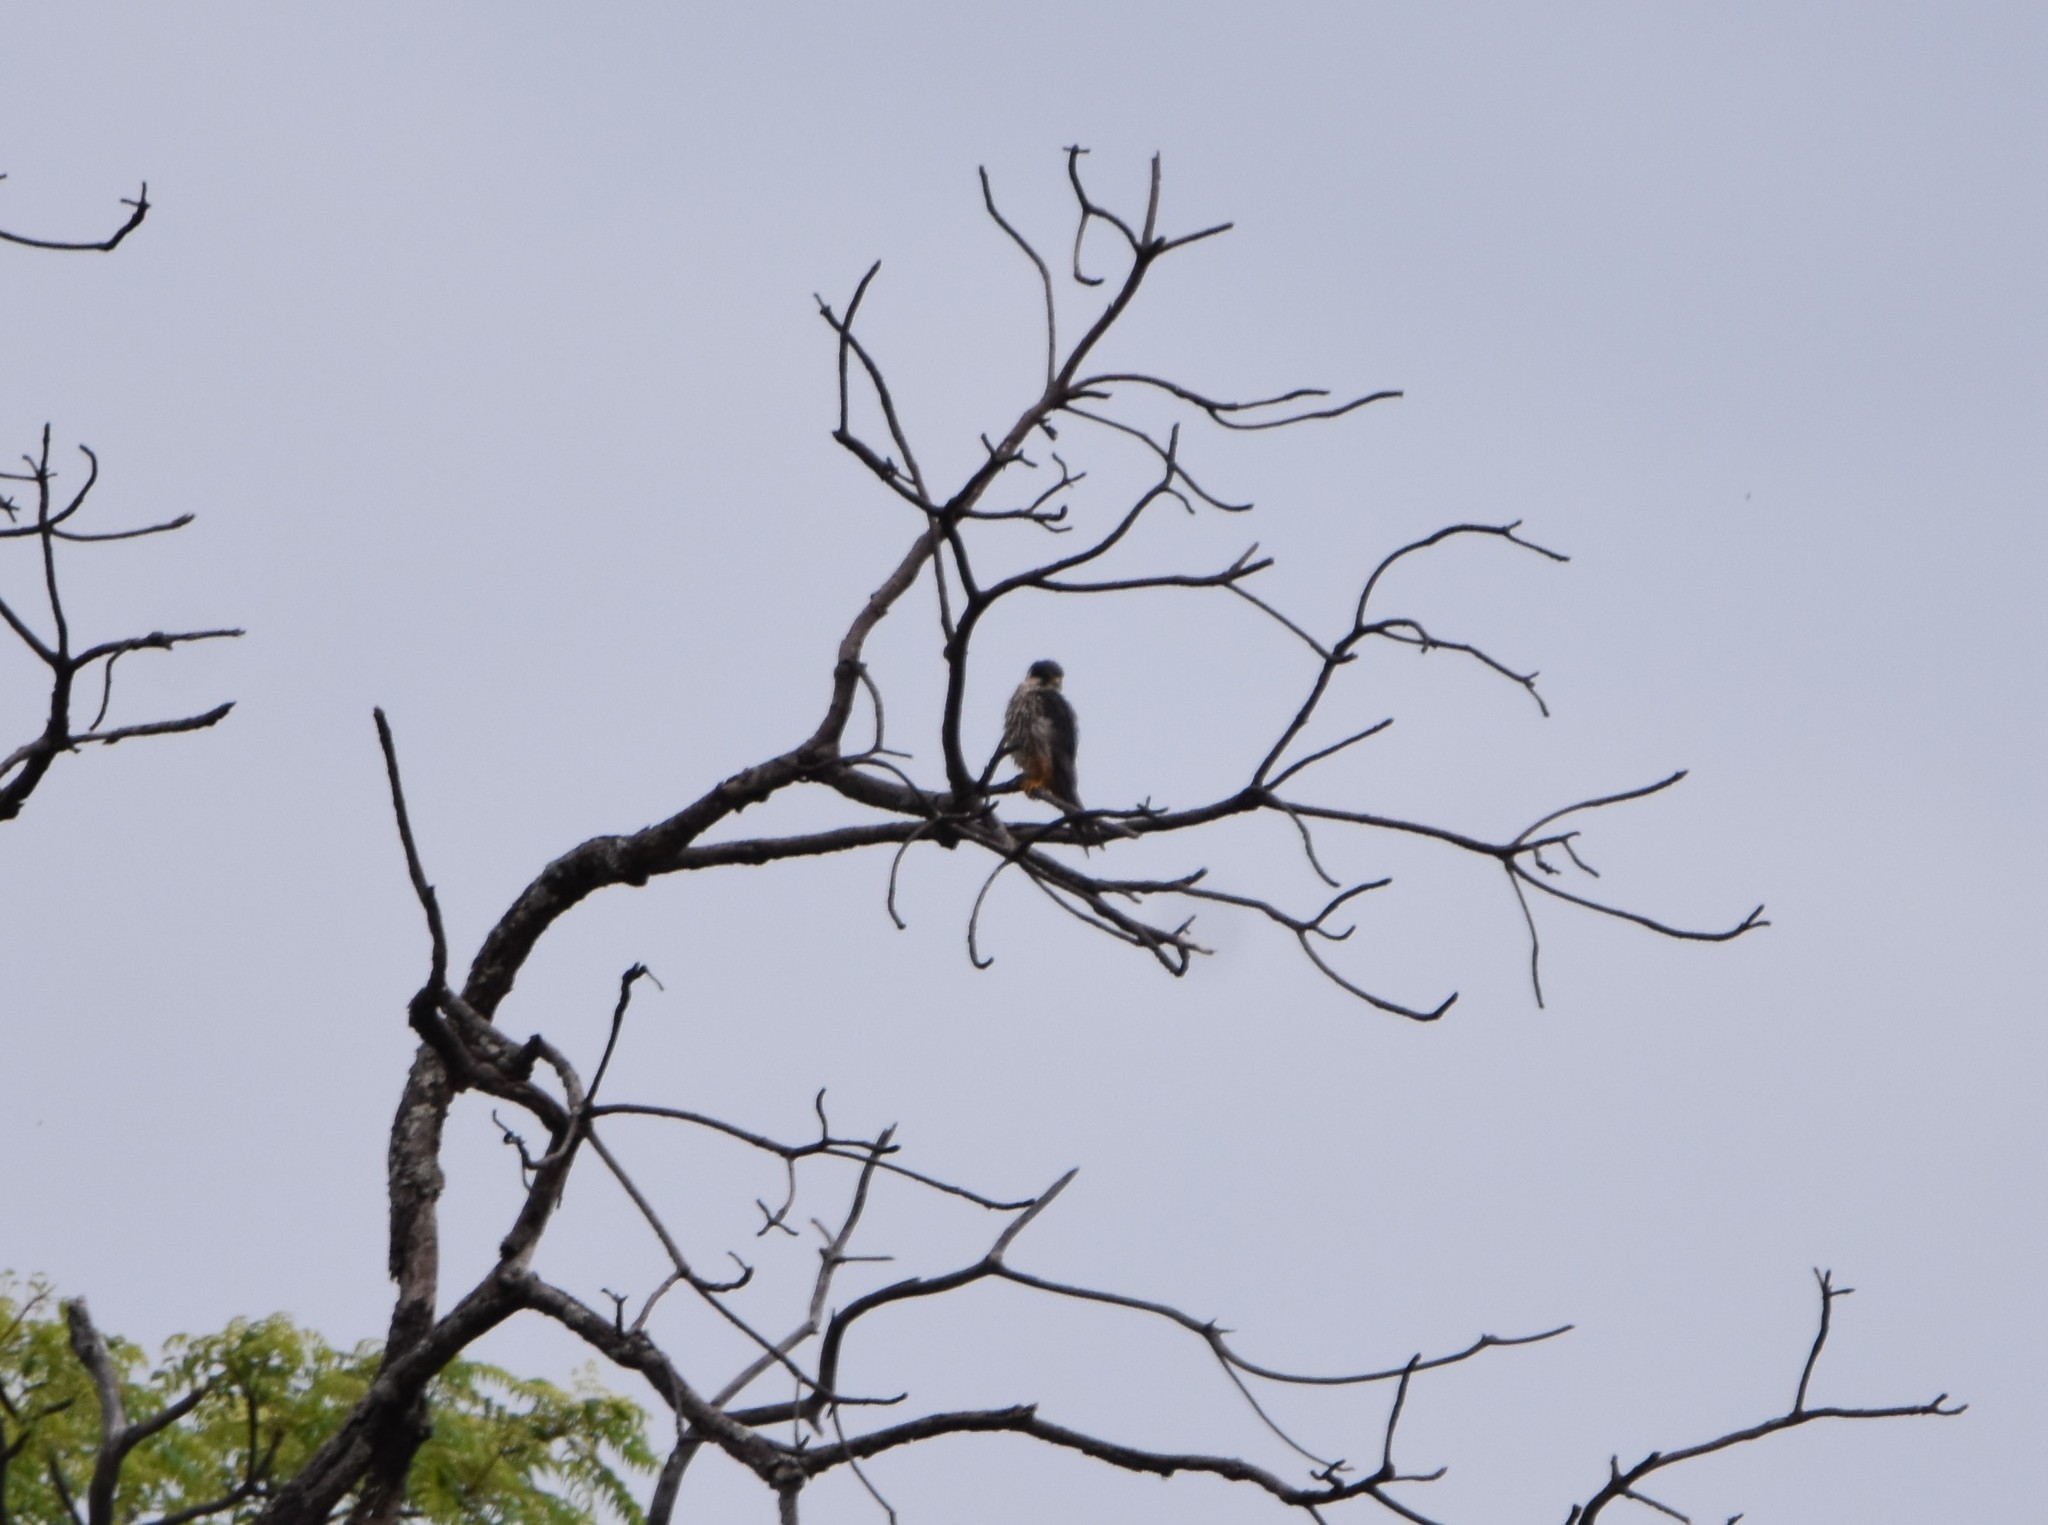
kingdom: Animalia
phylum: Chordata
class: Aves
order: Falconiformes
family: Falconidae
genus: Falco
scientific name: Falco subbuteo
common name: Eurasian hobby
